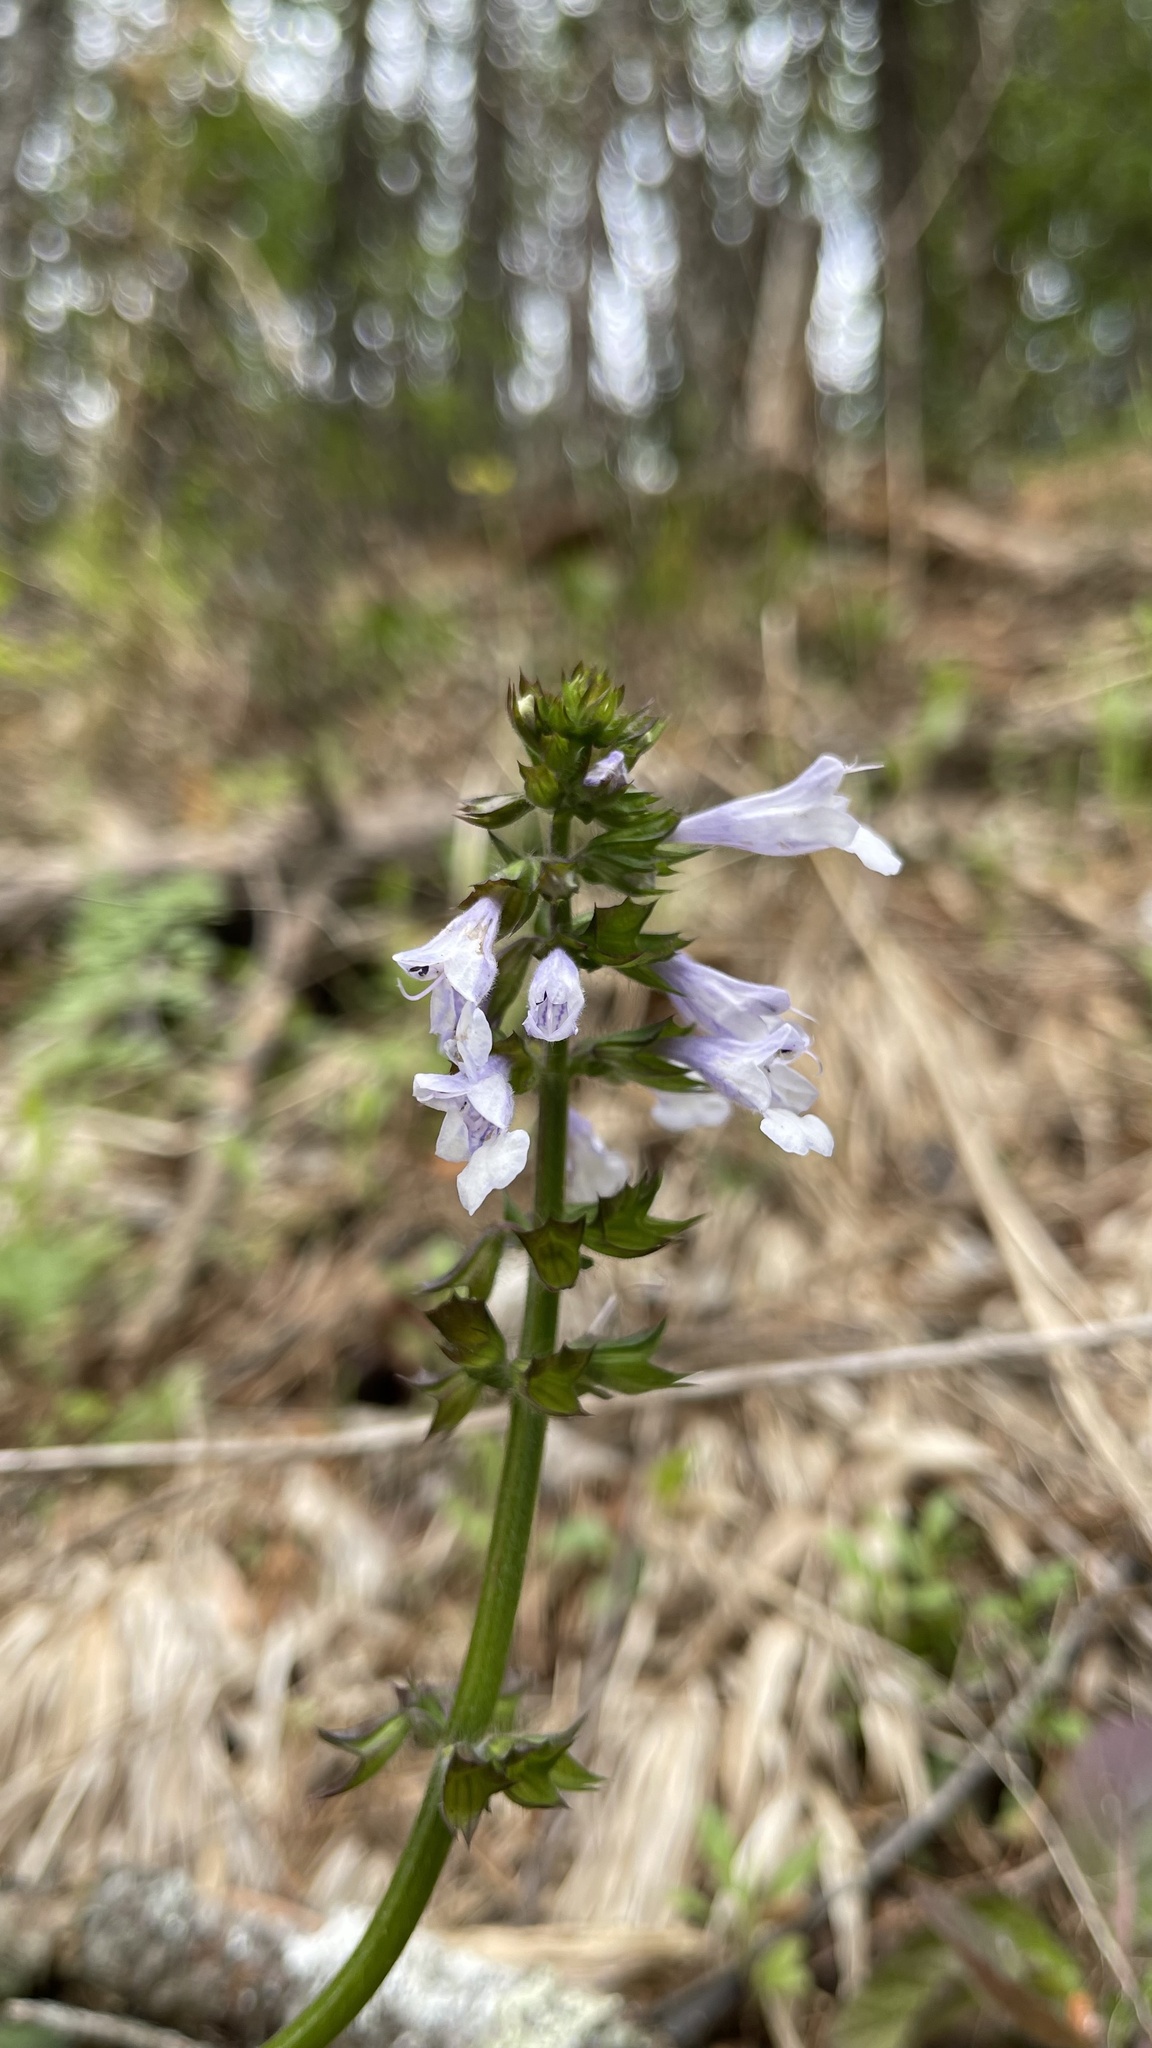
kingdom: Plantae
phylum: Tracheophyta
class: Magnoliopsida
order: Lamiales
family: Lamiaceae
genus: Salvia
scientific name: Salvia lyrata
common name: Cancerweed
